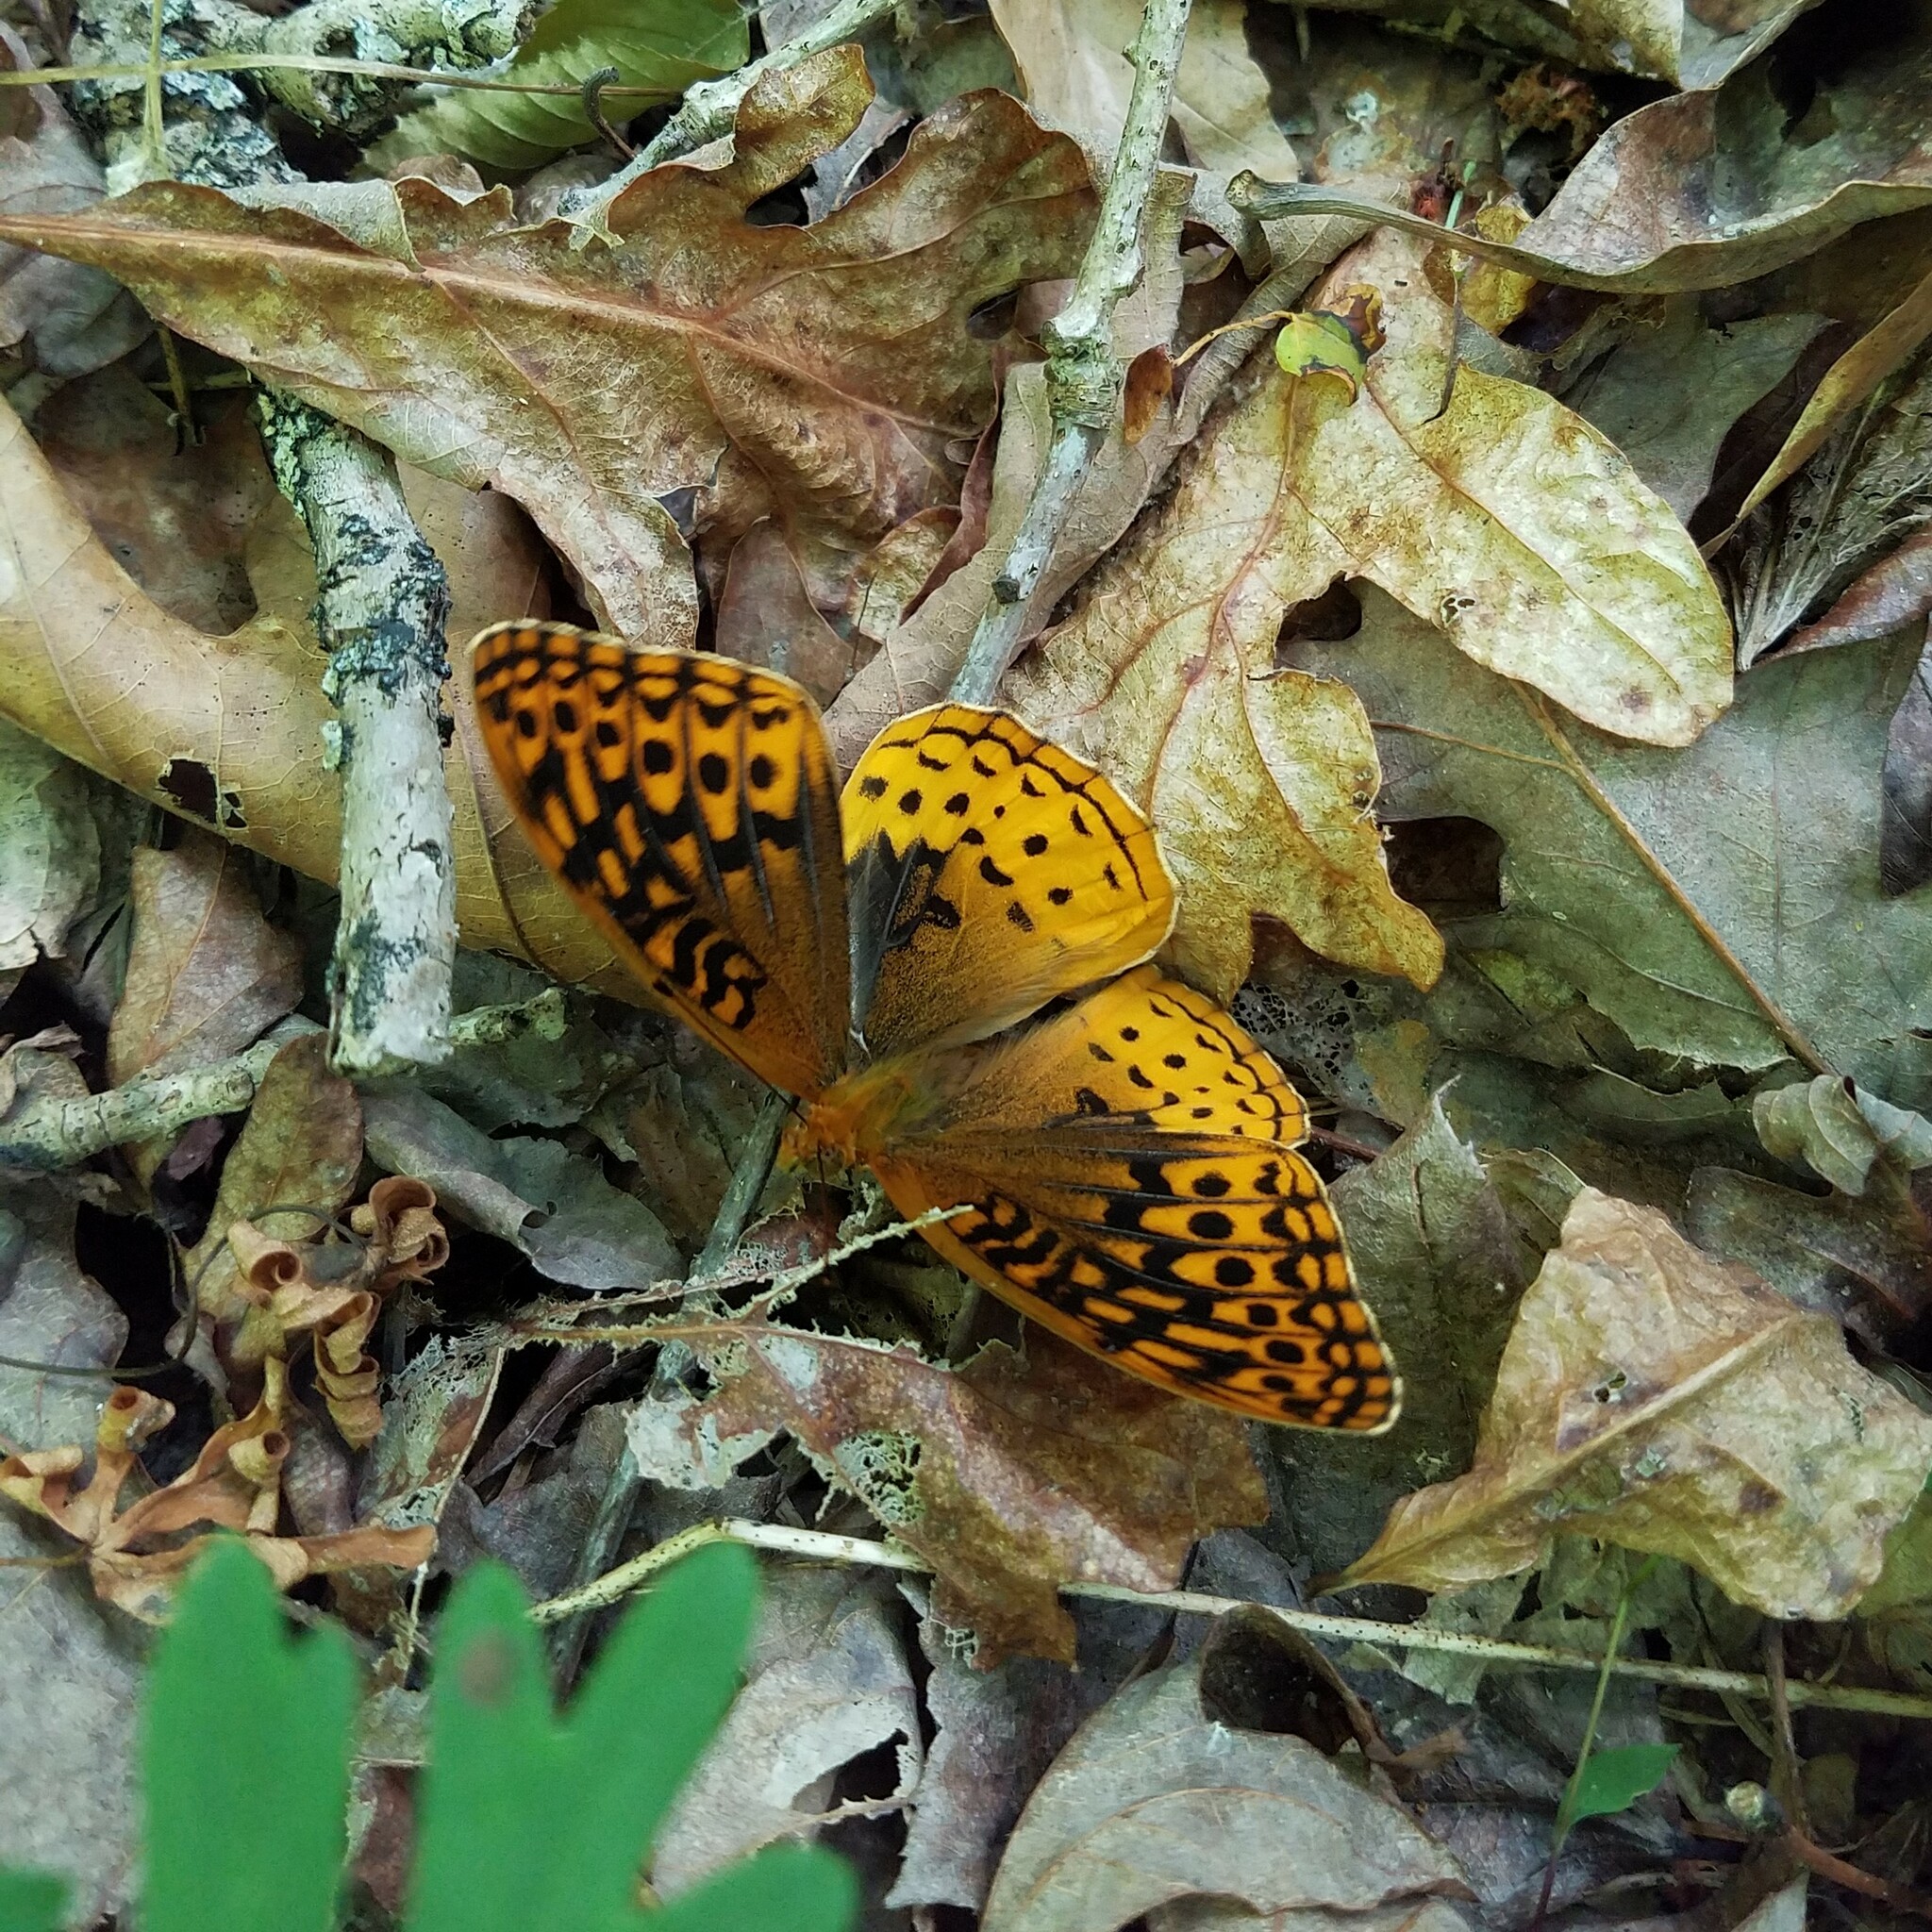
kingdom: Animalia
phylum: Arthropoda
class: Insecta
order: Lepidoptera
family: Nymphalidae
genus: Speyeria
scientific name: Speyeria cybele
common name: Great spangled fritillary
